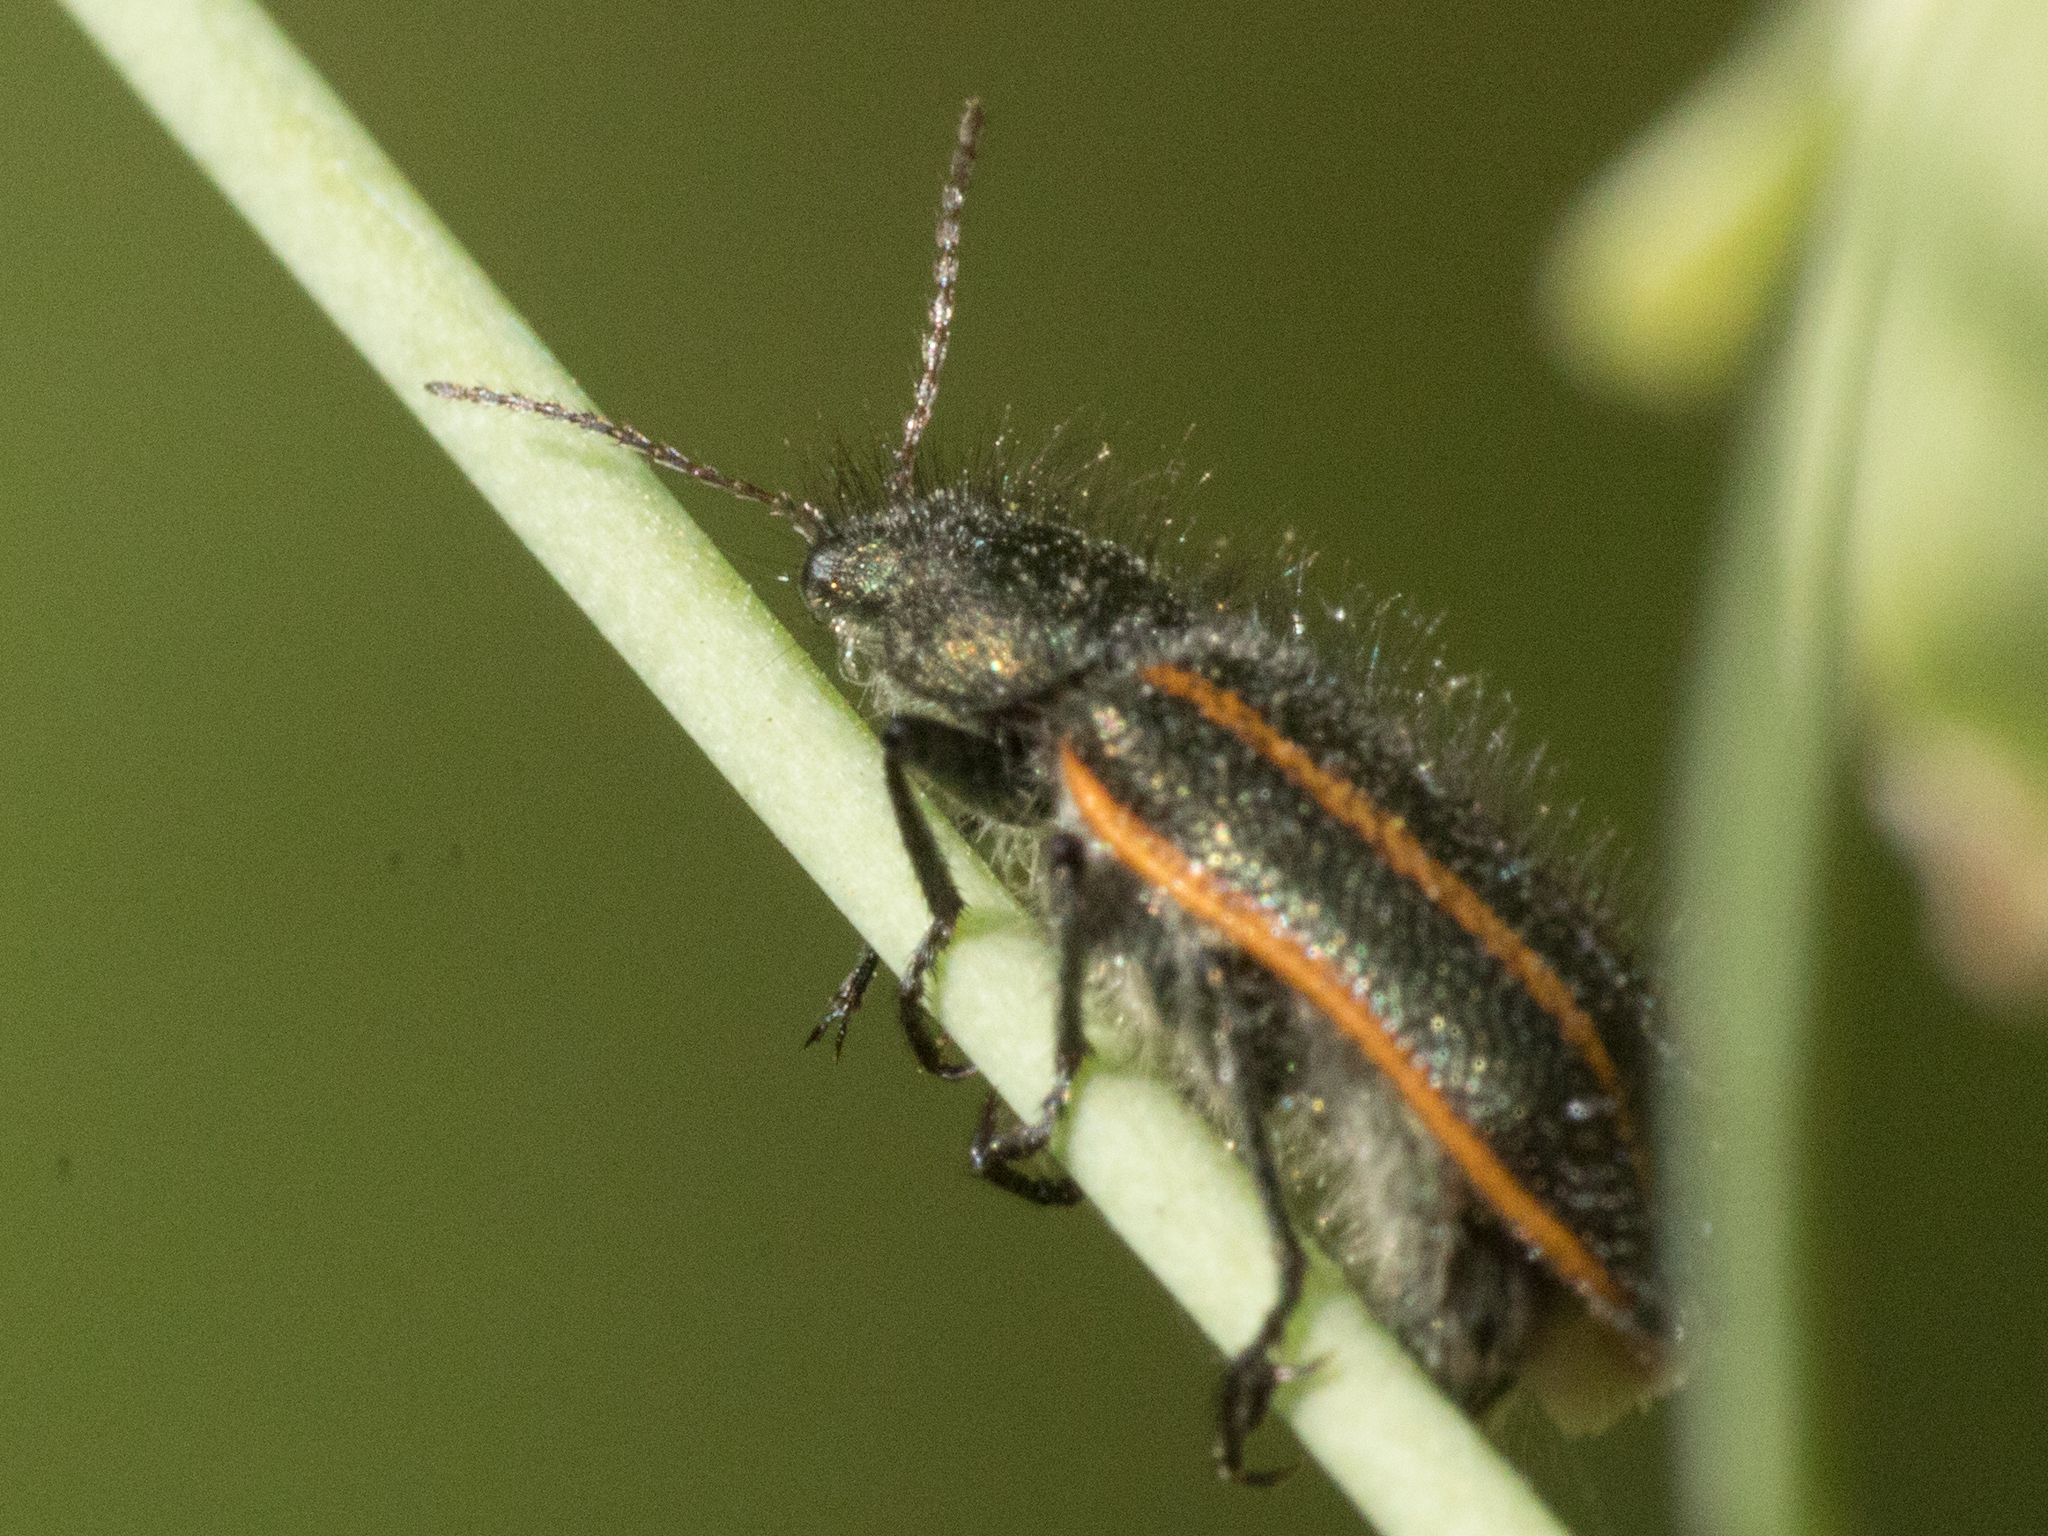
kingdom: Animalia
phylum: Arthropoda
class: Insecta
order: Coleoptera
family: Melyridae
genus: Astylus
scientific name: Astylus
